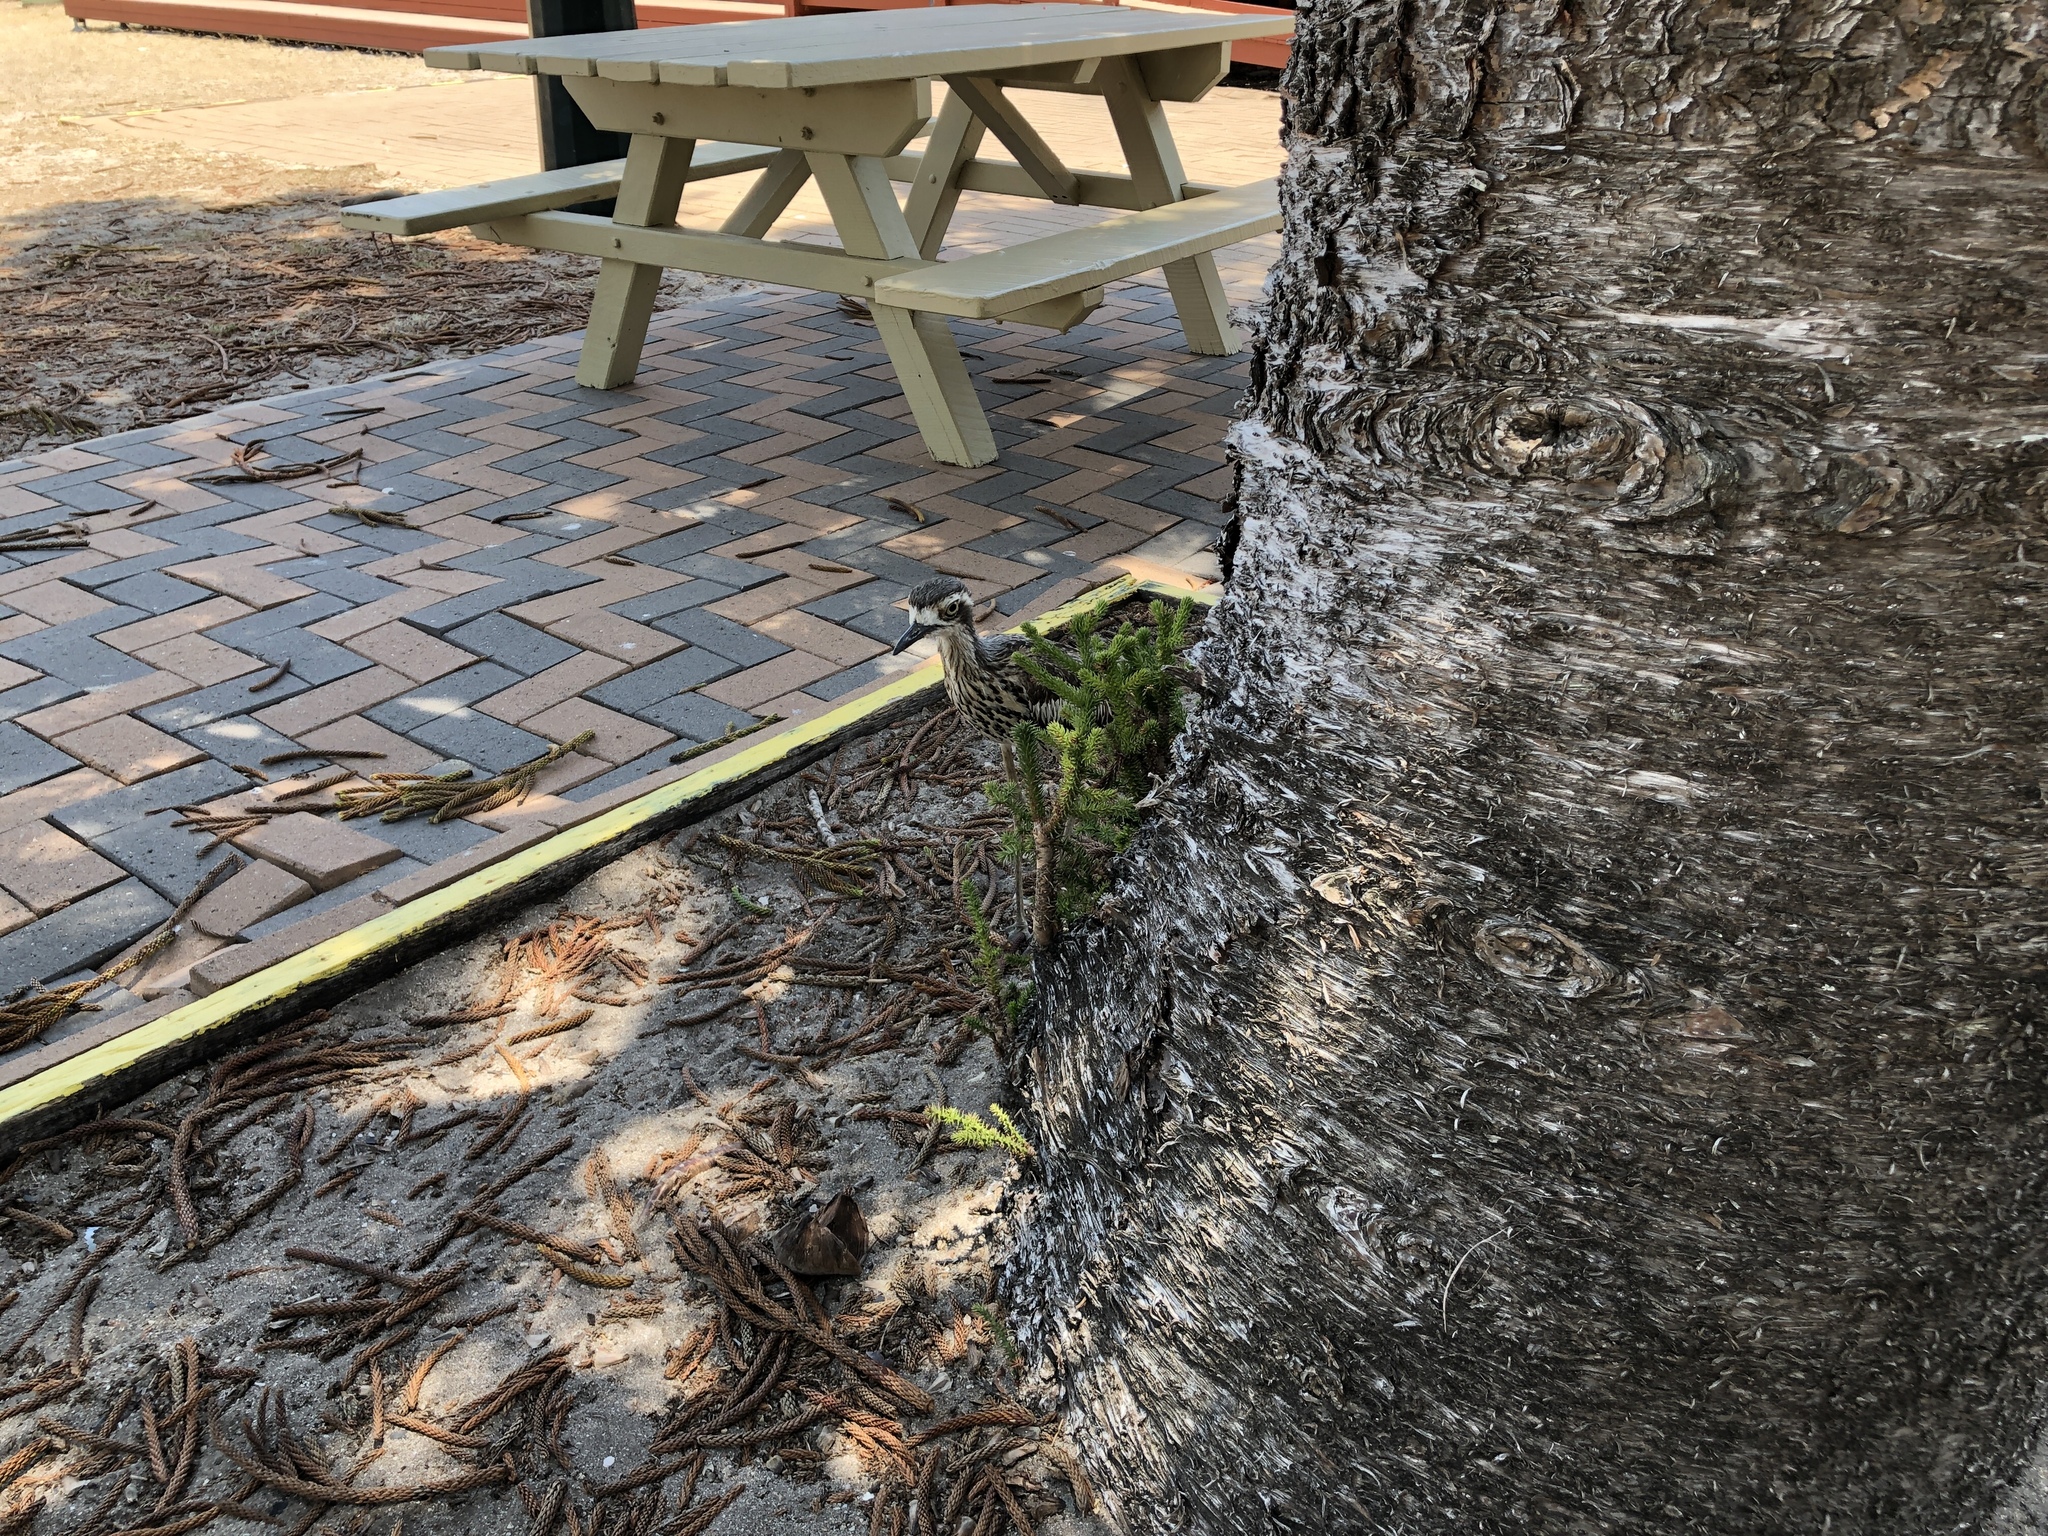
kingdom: Animalia
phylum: Chordata
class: Aves
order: Charadriiformes
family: Burhinidae
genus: Burhinus
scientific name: Burhinus grallarius
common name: Bush stone-curlew
